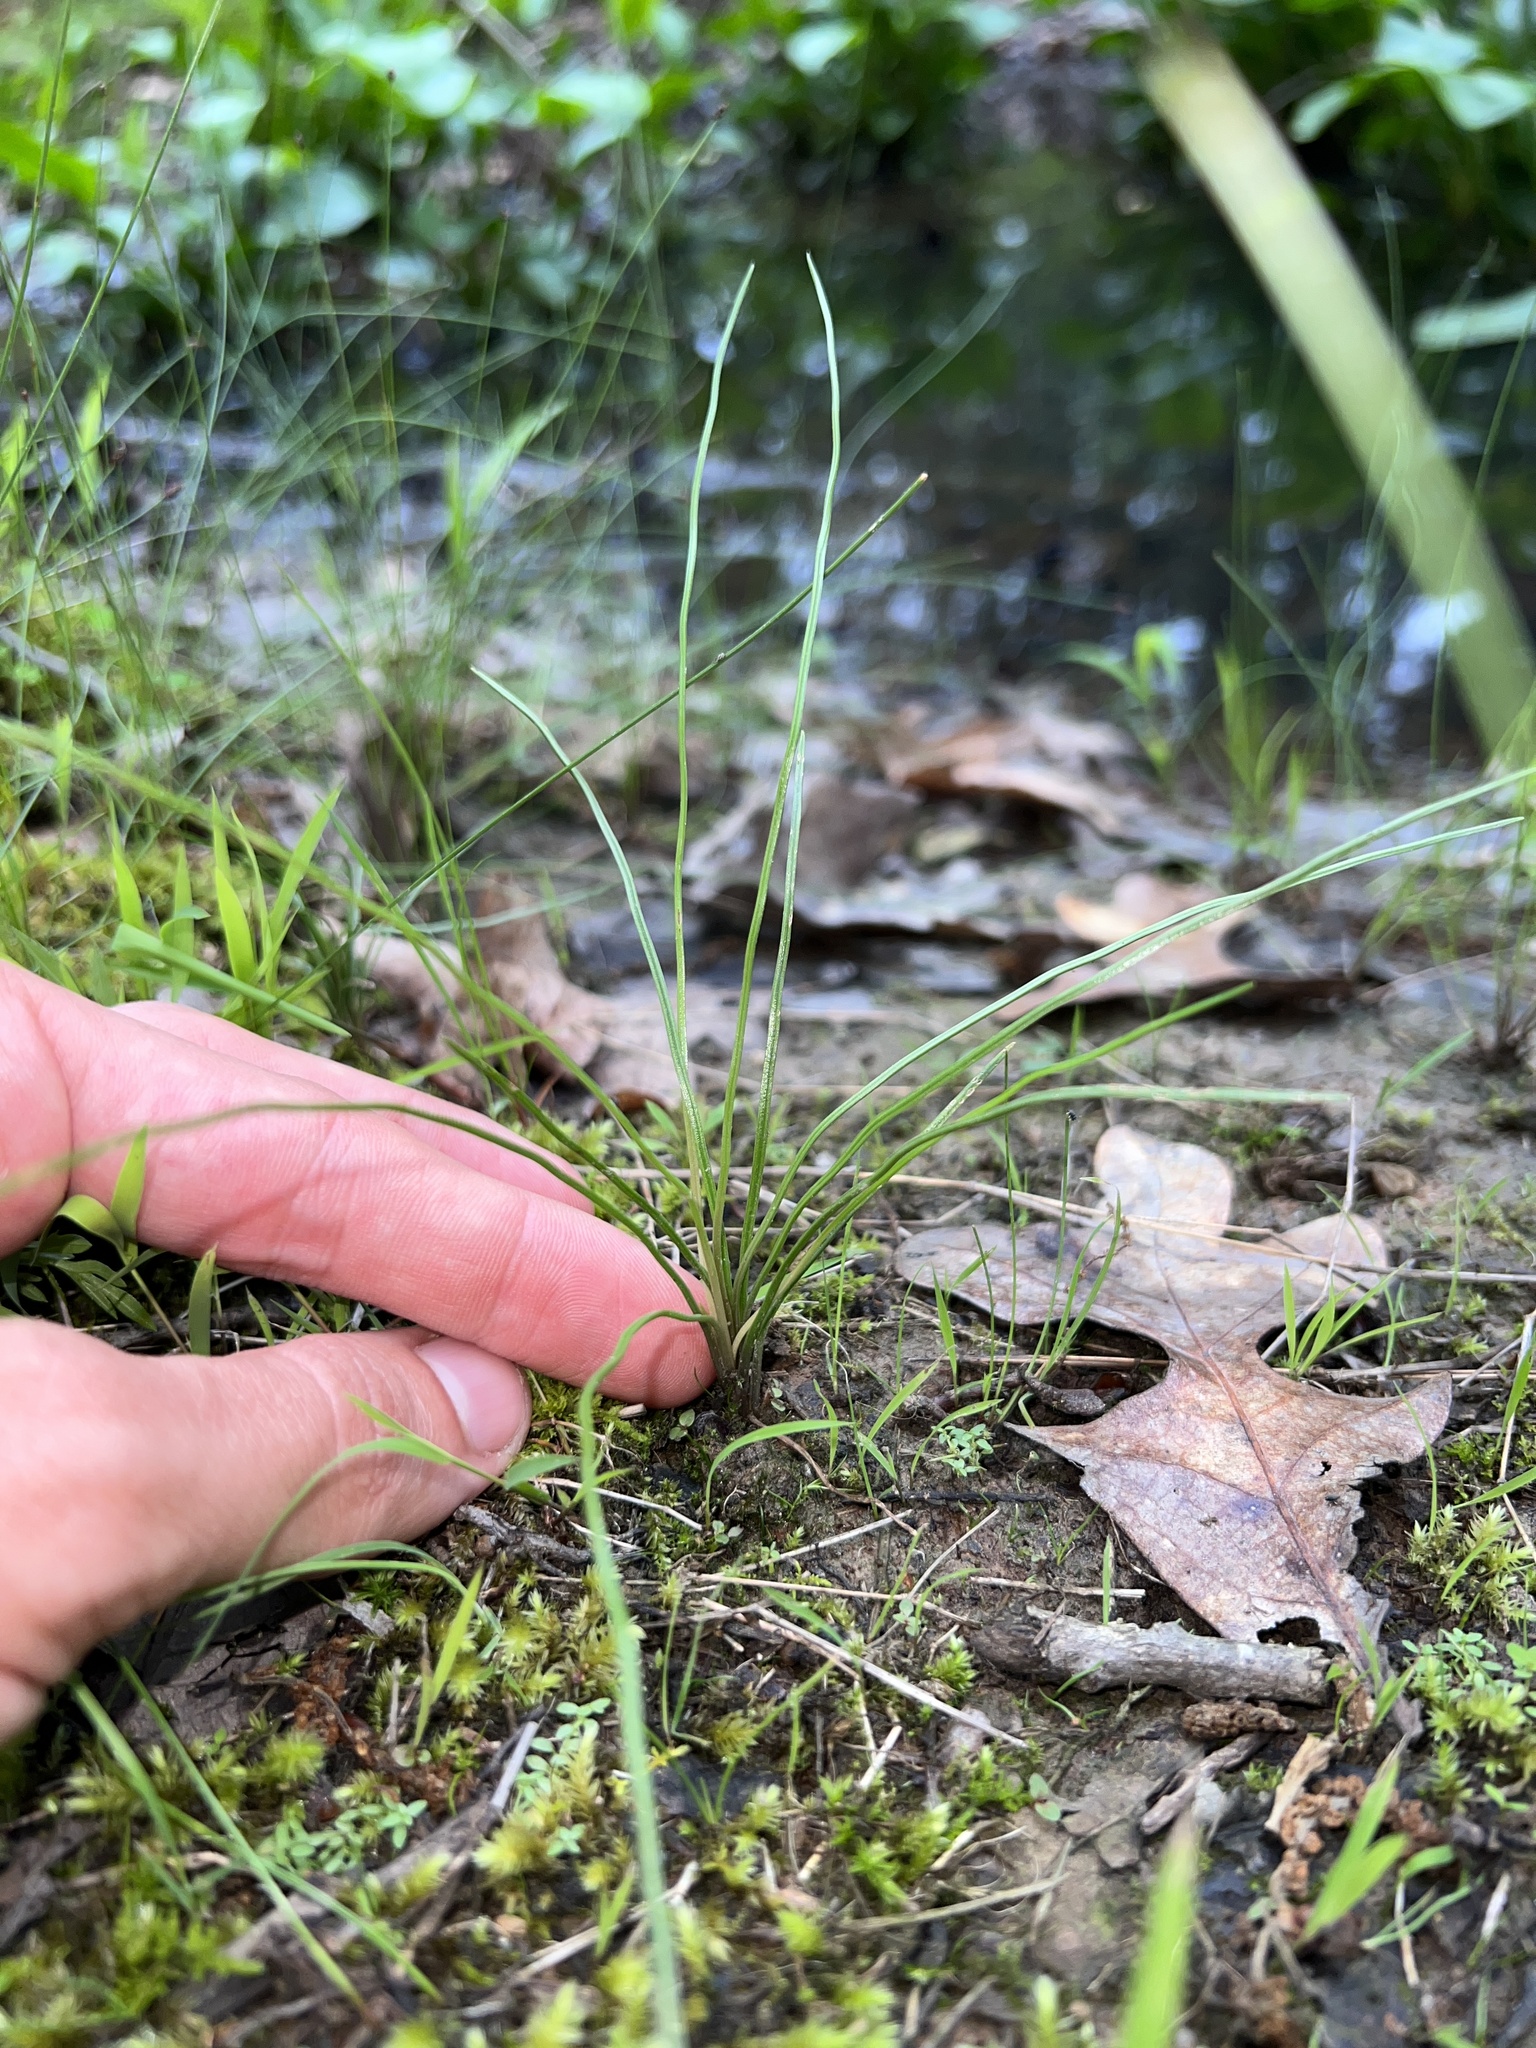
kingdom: Plantae
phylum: Tracheophyta
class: Lycopodiopsida
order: Isoetales
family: Isoetaceae
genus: Isoetes
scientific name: Isoetes melanopoda
